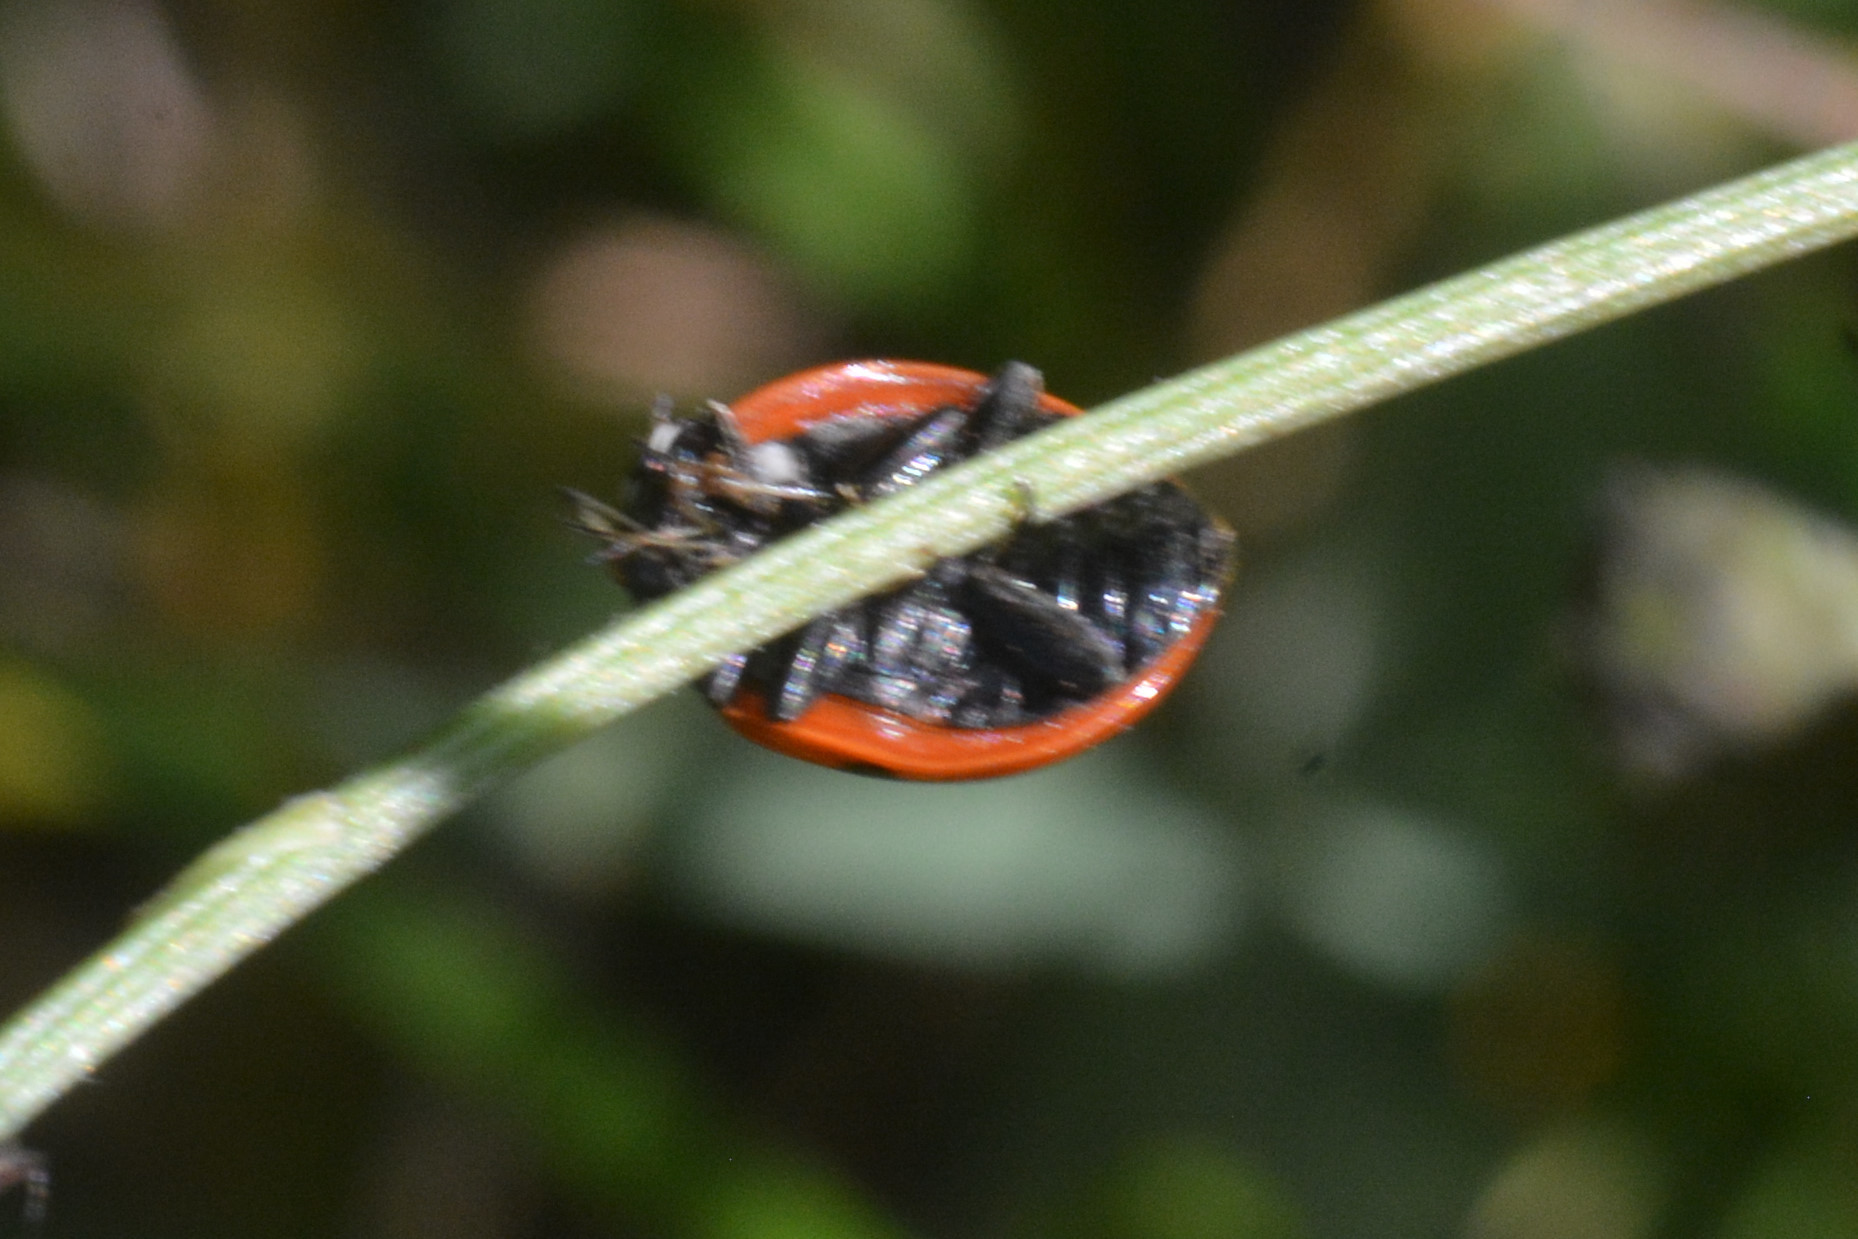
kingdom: Animalia
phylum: Arthropoda
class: Insecta
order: Coleoptera
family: Coccinellidae
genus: Coccinella
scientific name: Coccinella septempunctata
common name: Sevenspotted lady beetle
